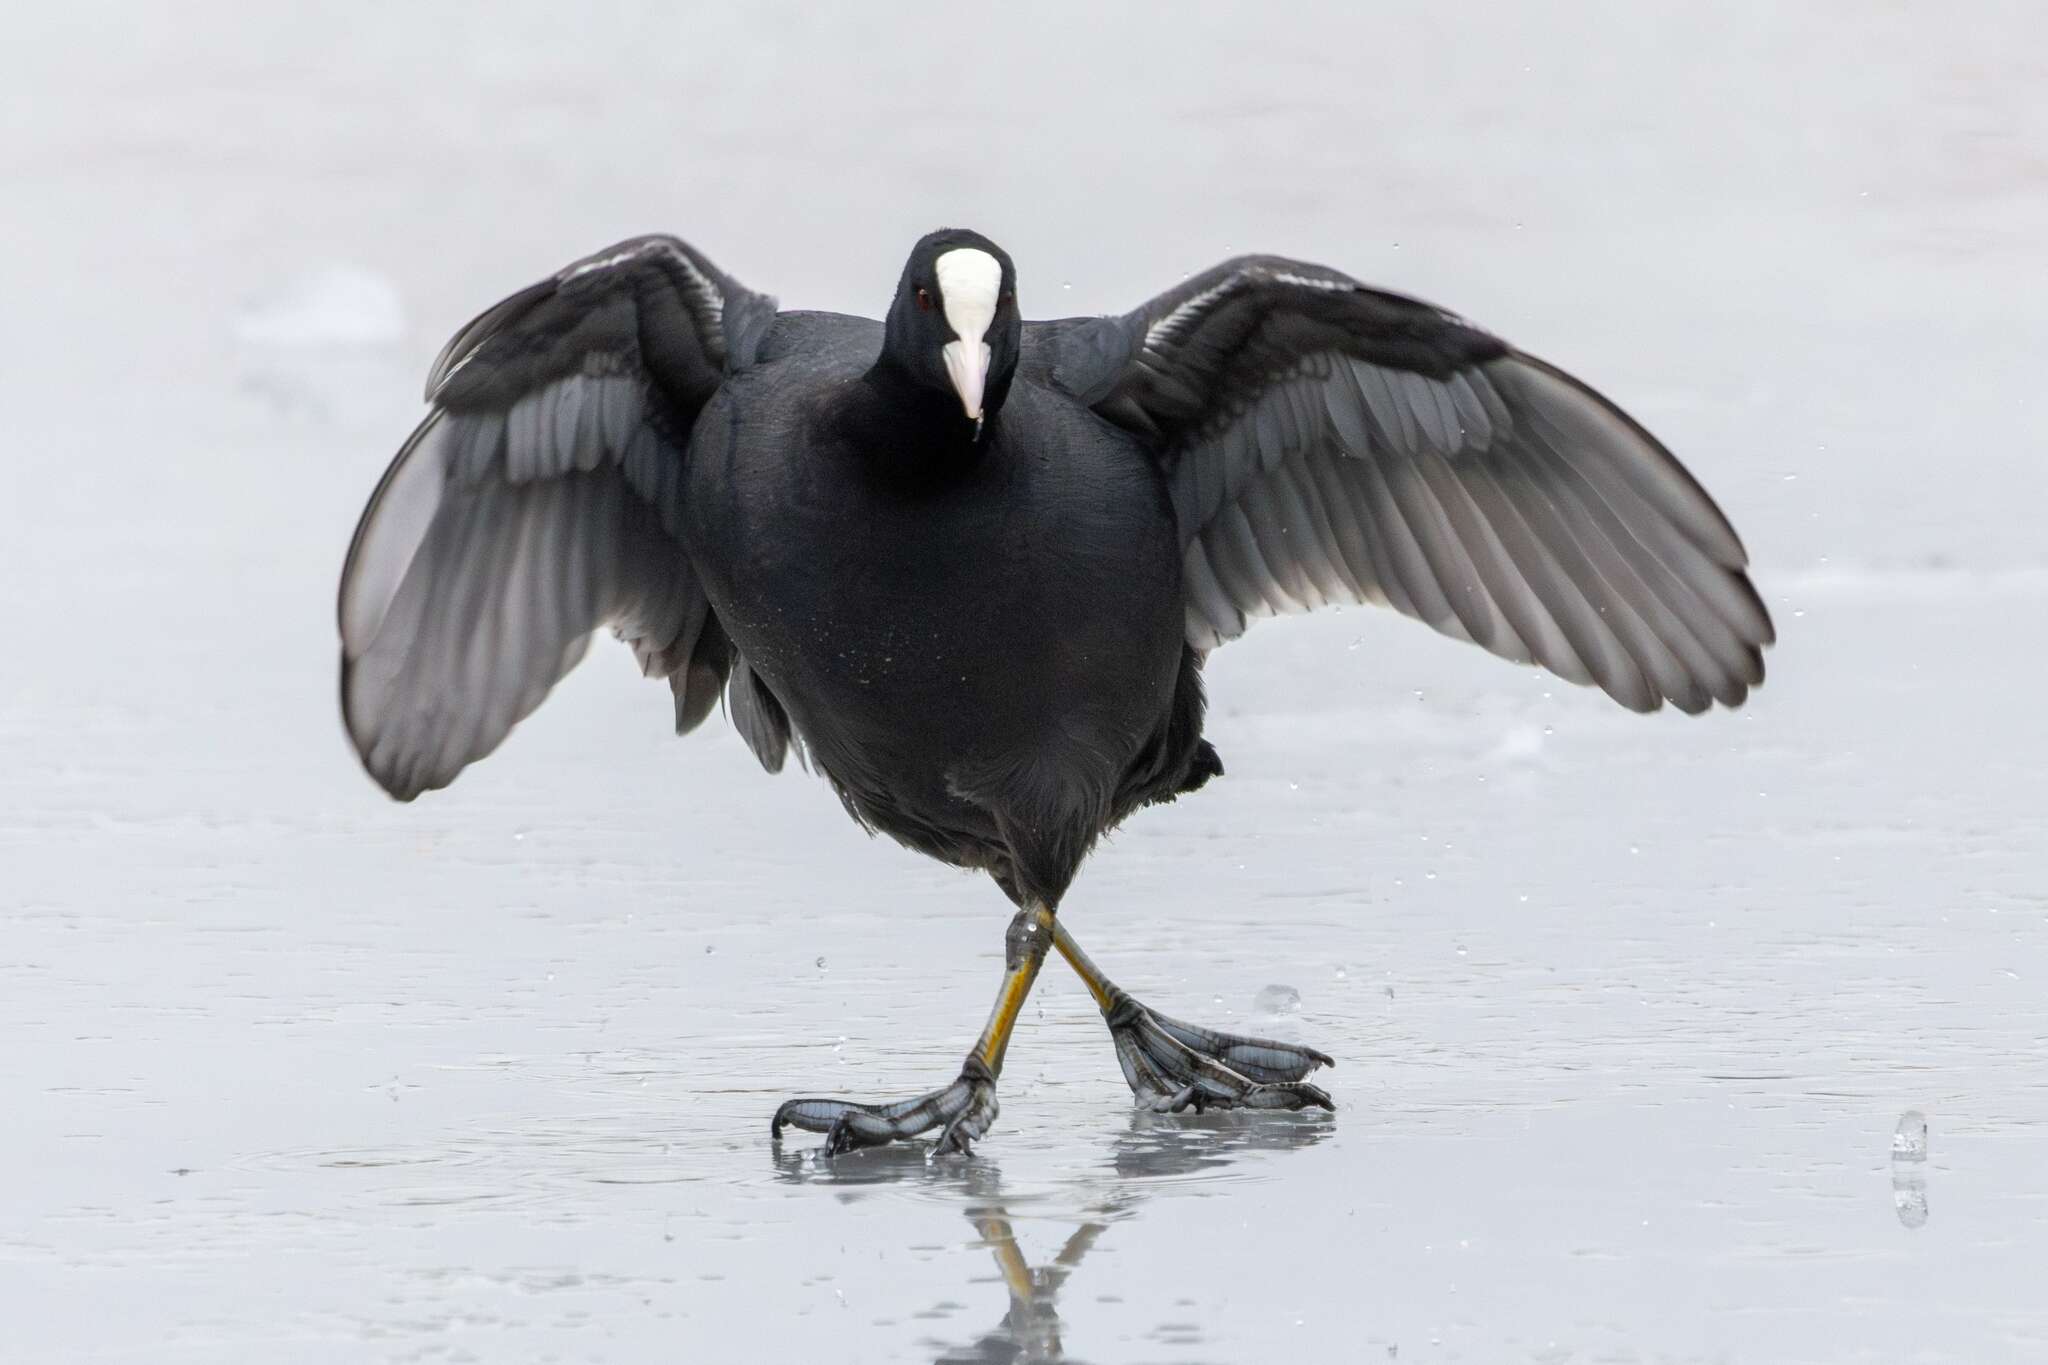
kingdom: Animalia
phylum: Chordata
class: Aves
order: Gruiformes
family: Rallidae
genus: Fulica
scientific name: Fulica atra
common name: Eurasian coot
